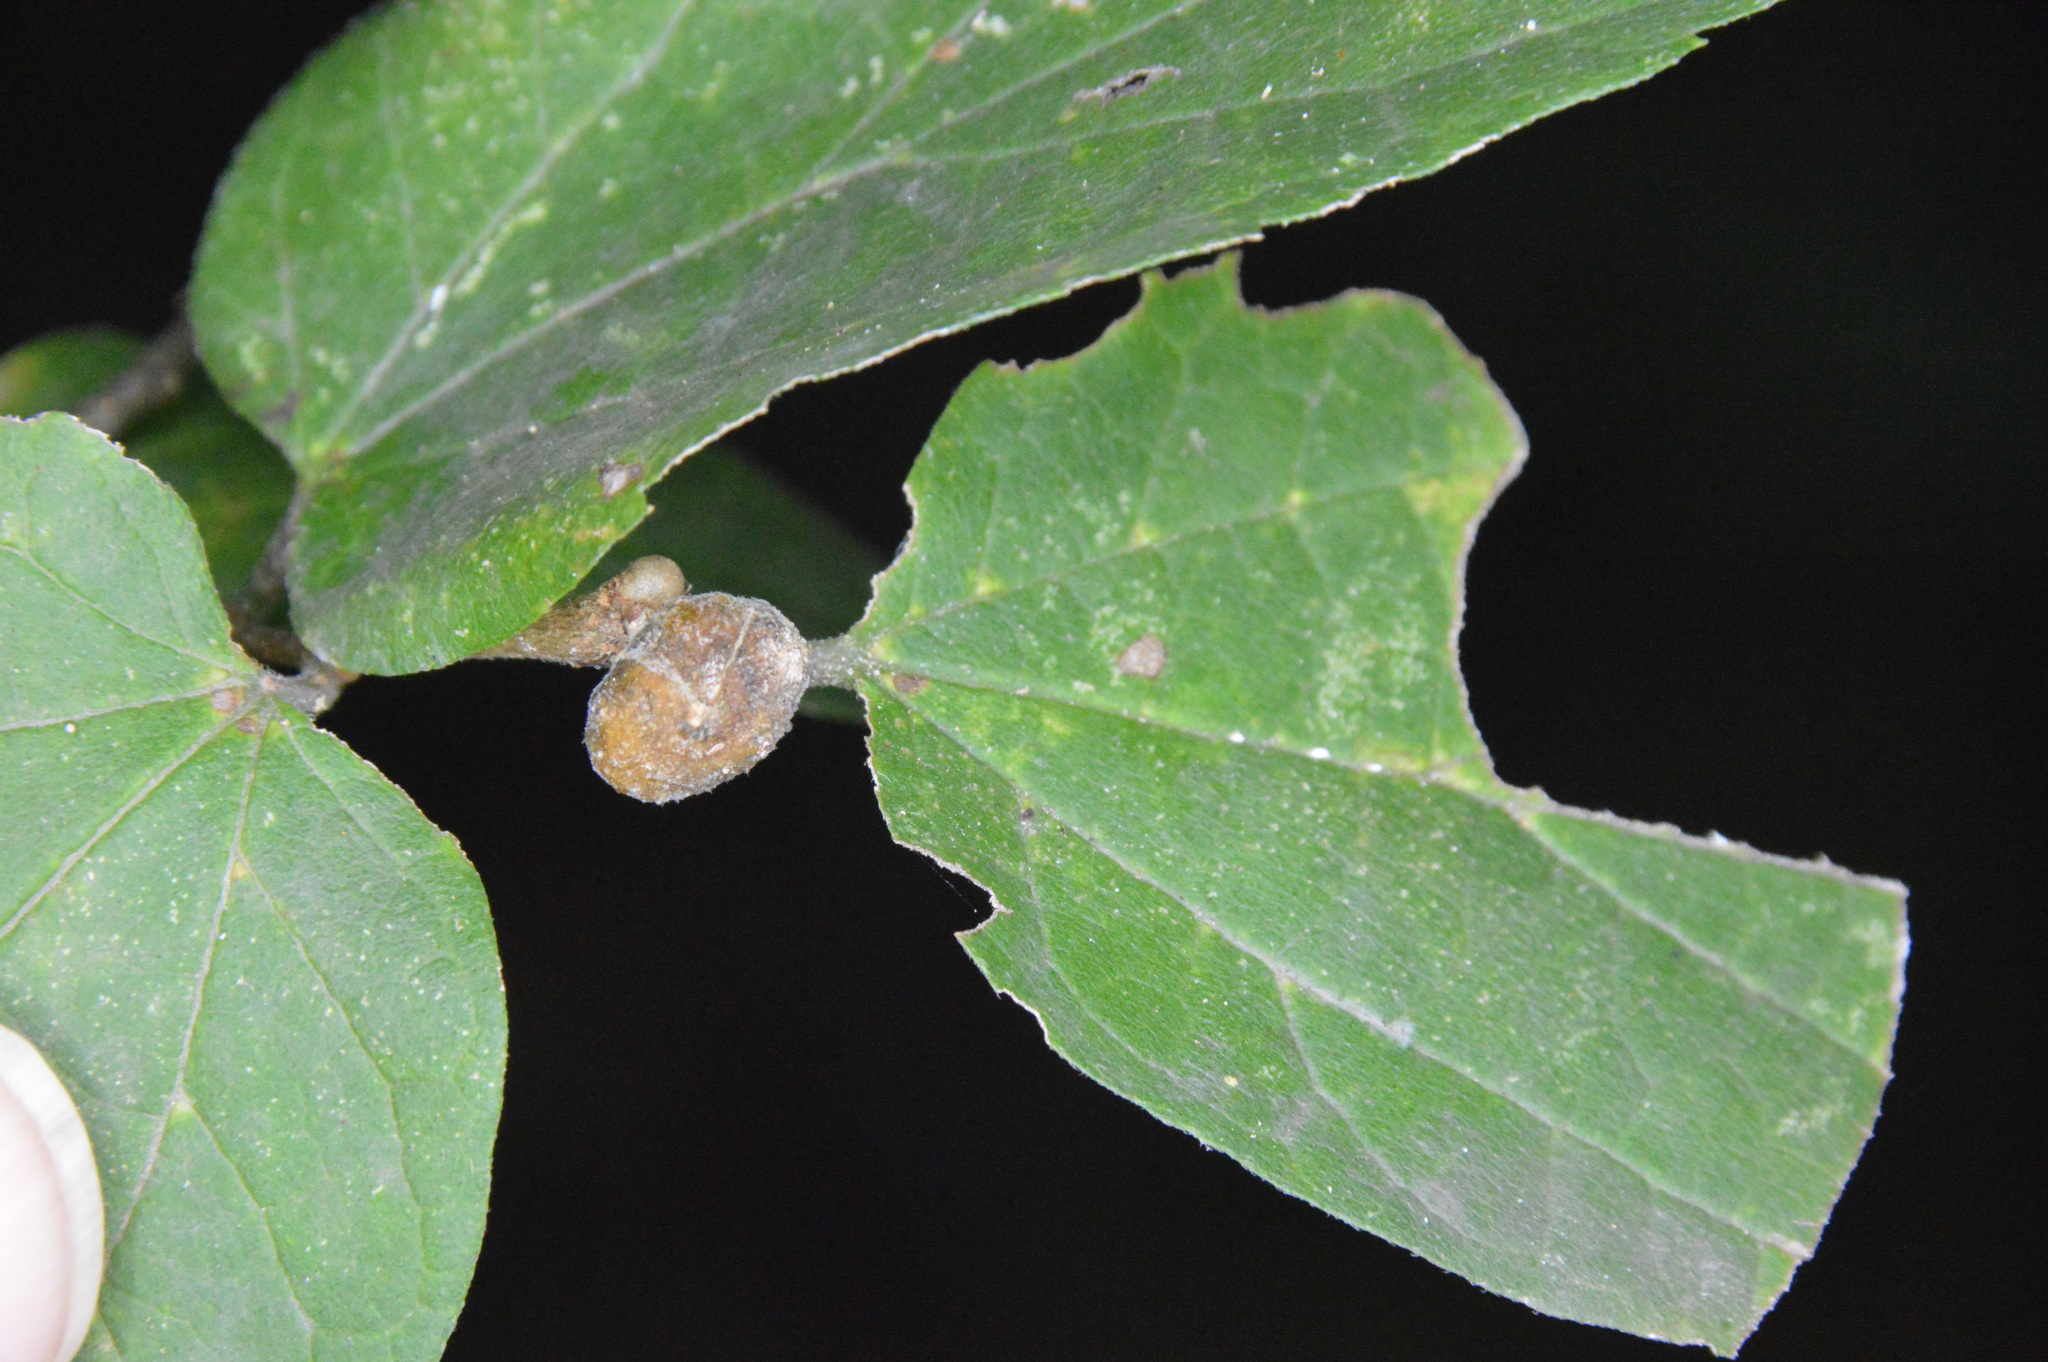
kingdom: Animalia
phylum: Arthropoda
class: Insecta
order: Hemiptera
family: Aphalaridae
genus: Pachypsylla
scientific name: Pachypsylla venusta
